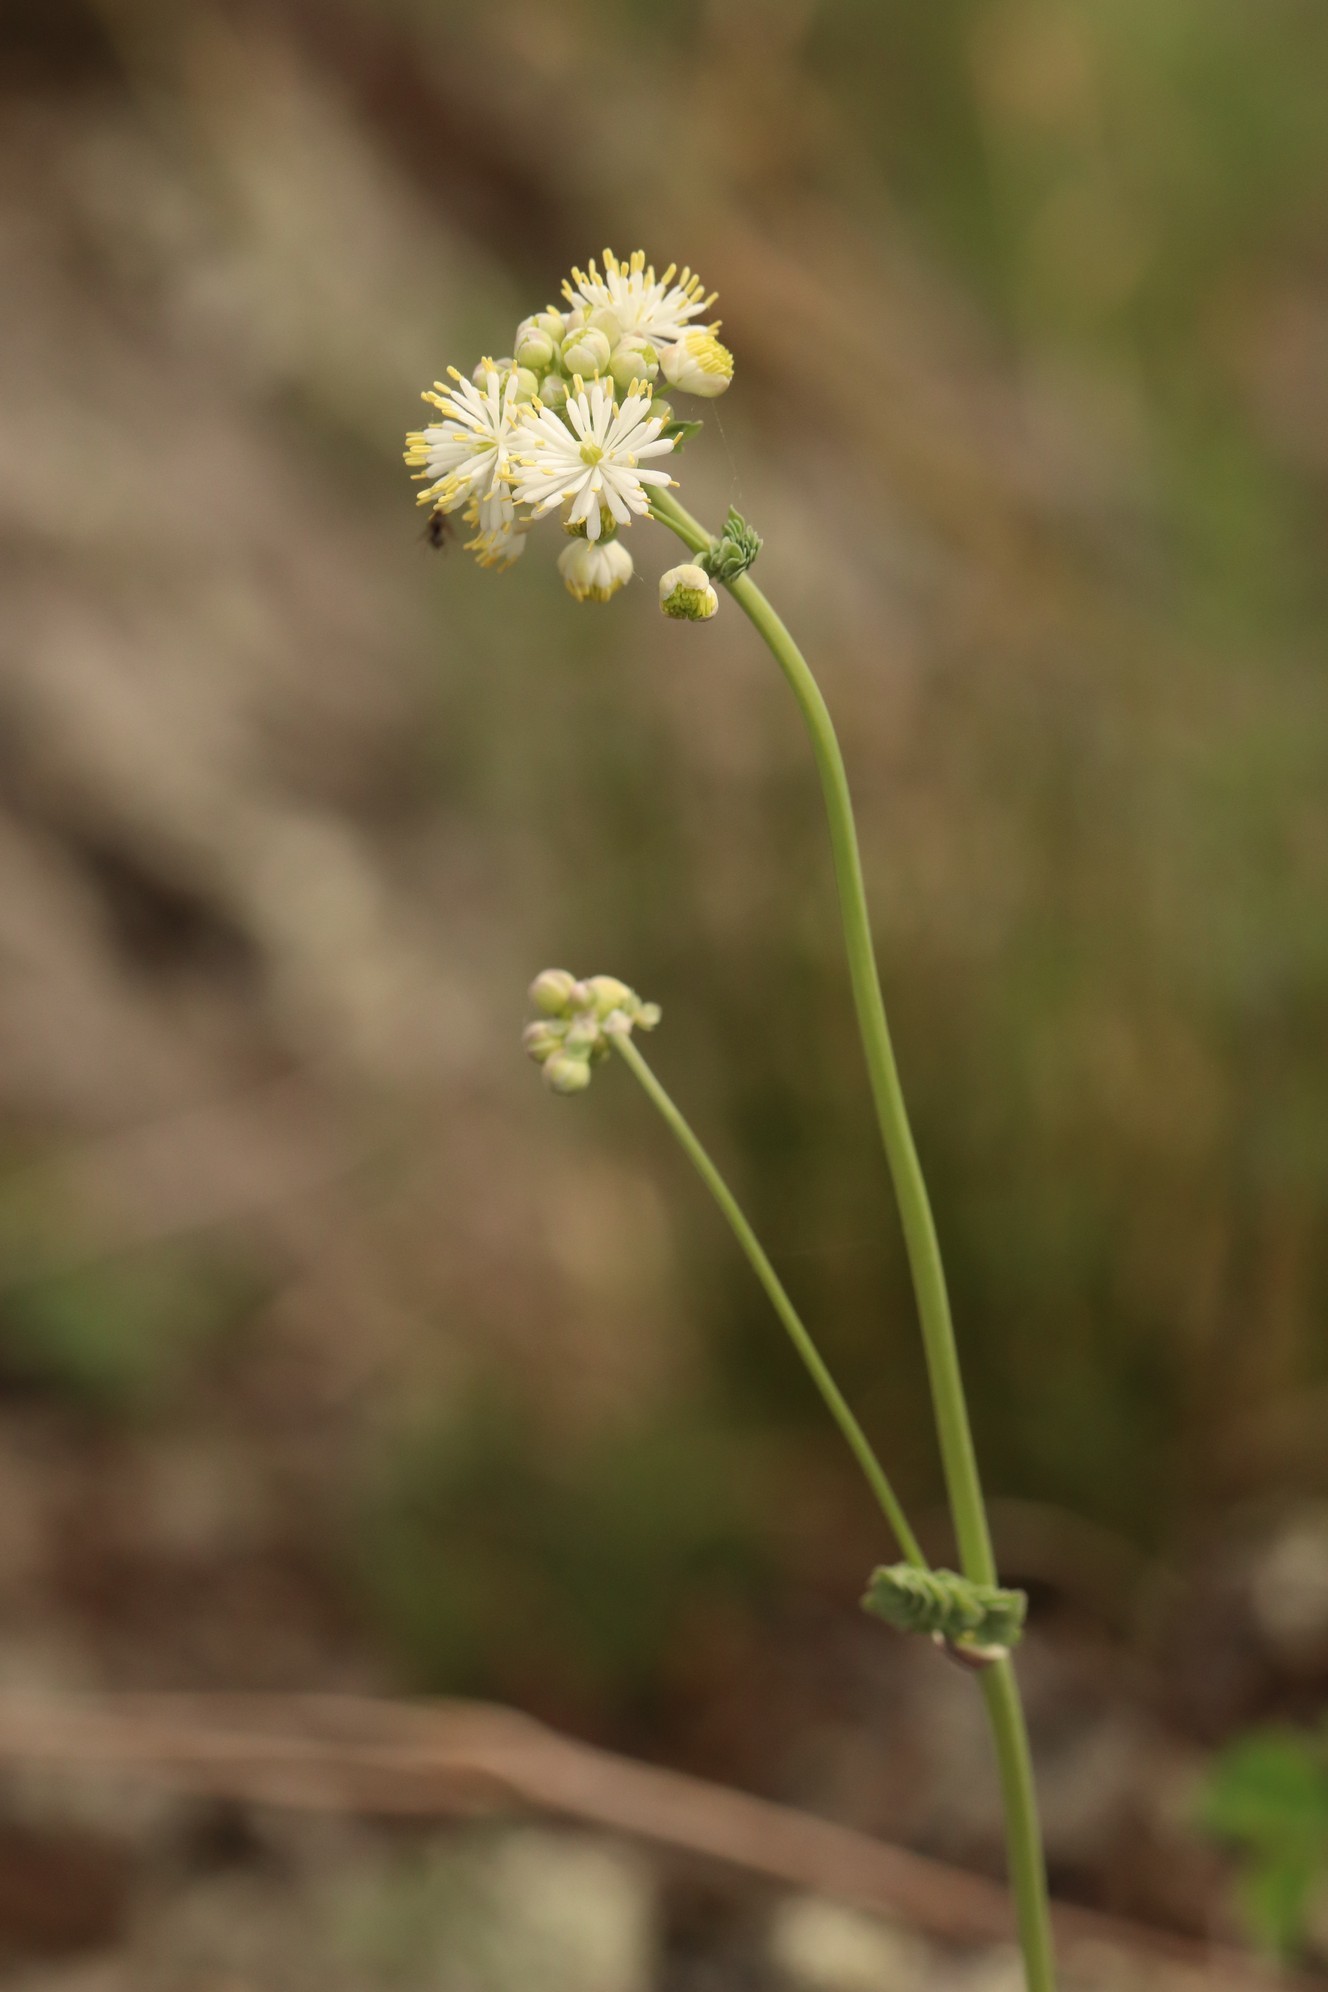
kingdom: Plantae
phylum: Tracheophyta
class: Magnoliopsida
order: Ranunculales
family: Ranunculaceae
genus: Thalictrum
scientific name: Thalictrum petaloideum
